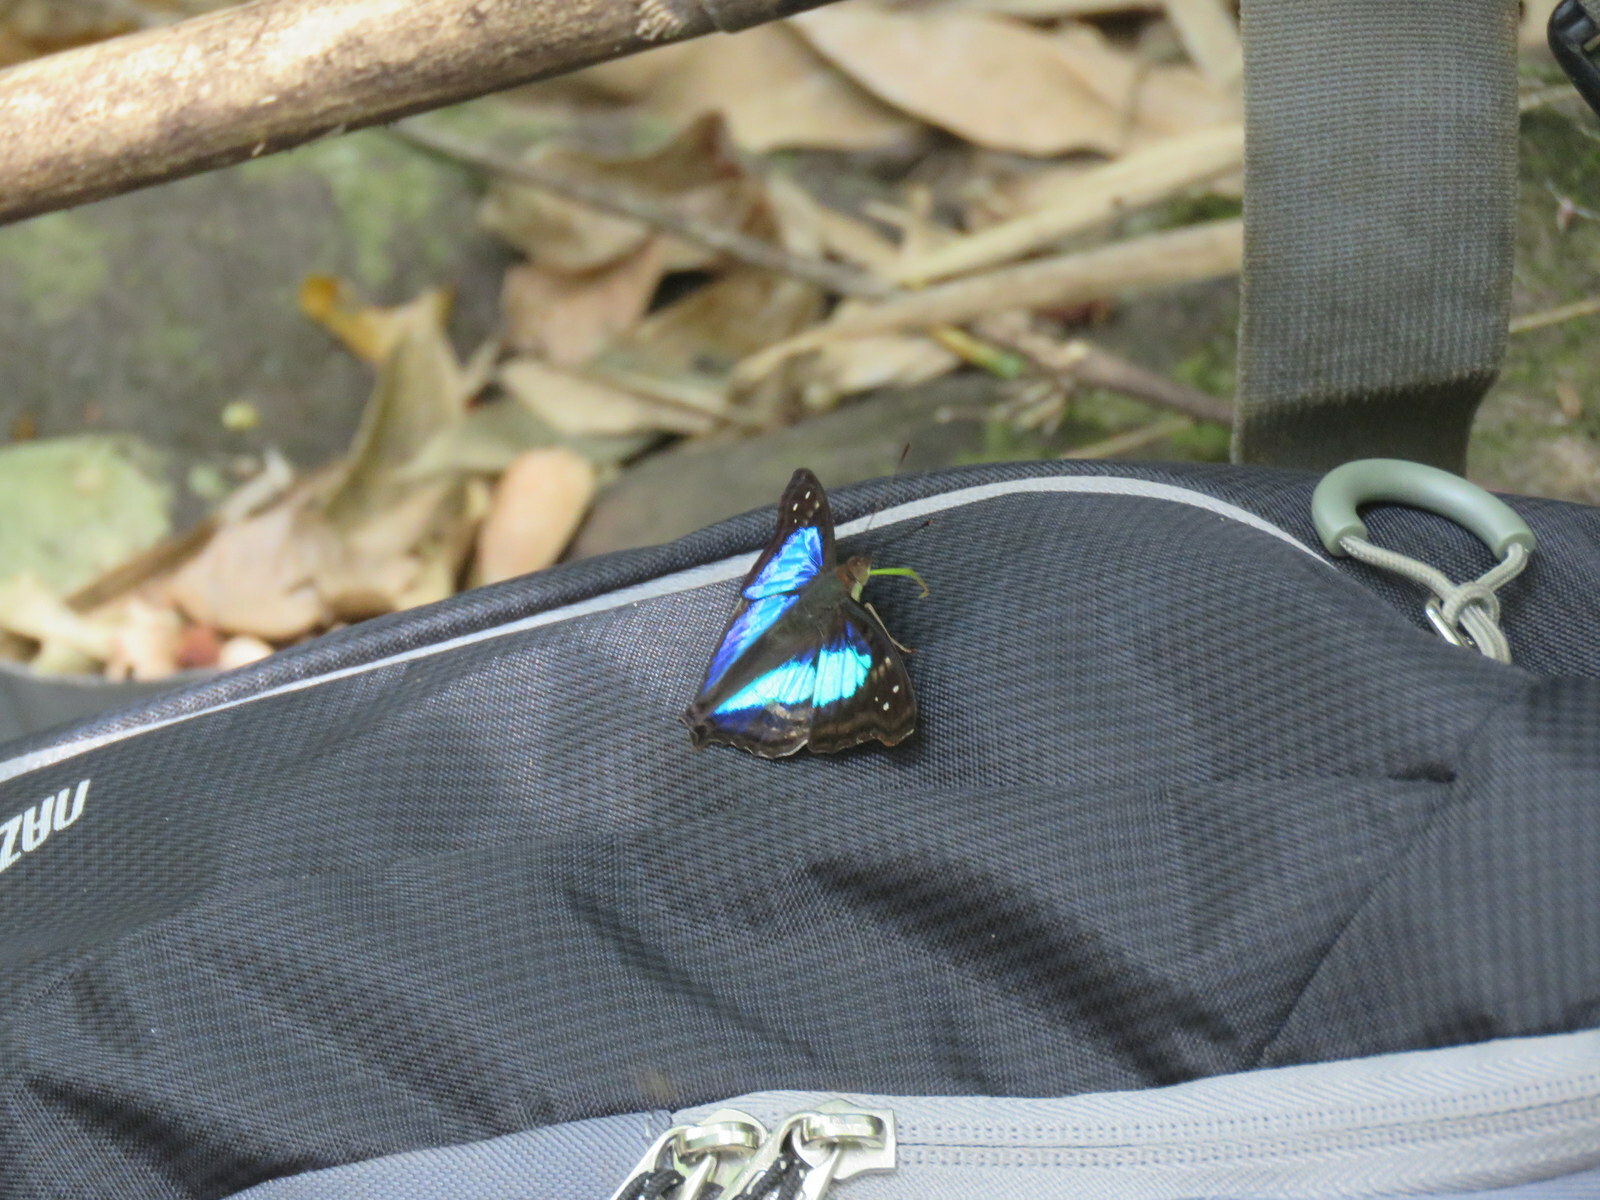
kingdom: Animalia
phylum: Arthropoda
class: Insecta
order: Lepidoptera
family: Nymphalidae
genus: Doxocopa
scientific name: Doxocopa laurentia
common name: Turquoise emperor
